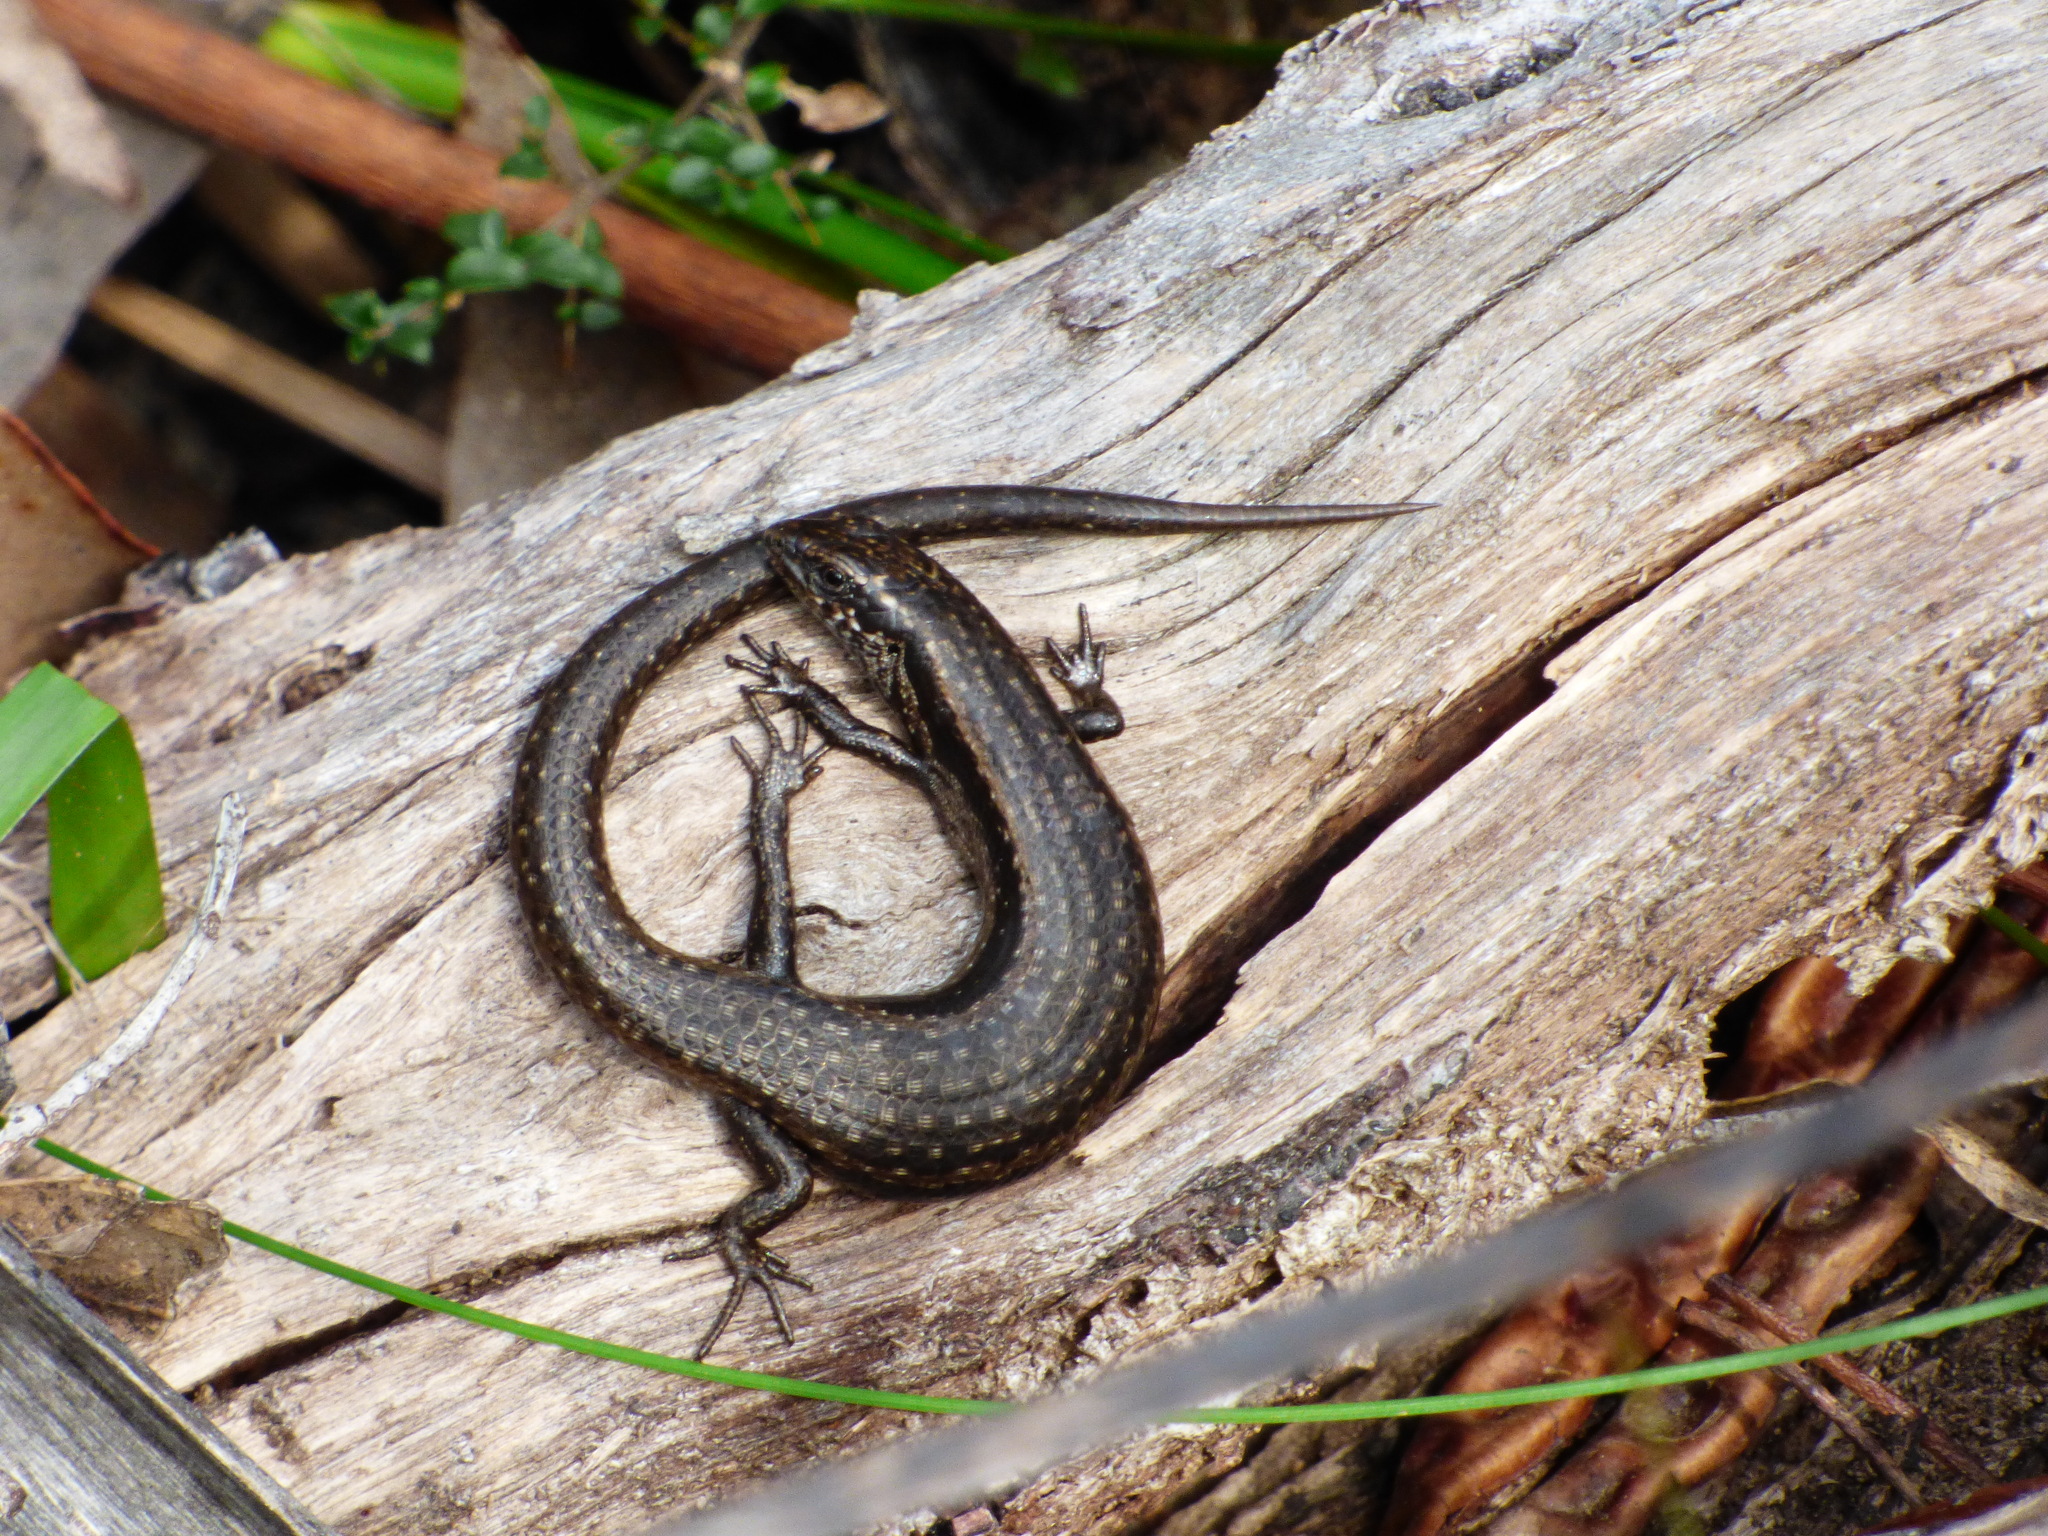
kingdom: Animalia
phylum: Chordata
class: Squamata
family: Scincidae
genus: Carinascincus
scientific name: Carinascincus metallicus
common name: Metallic cool-skink
